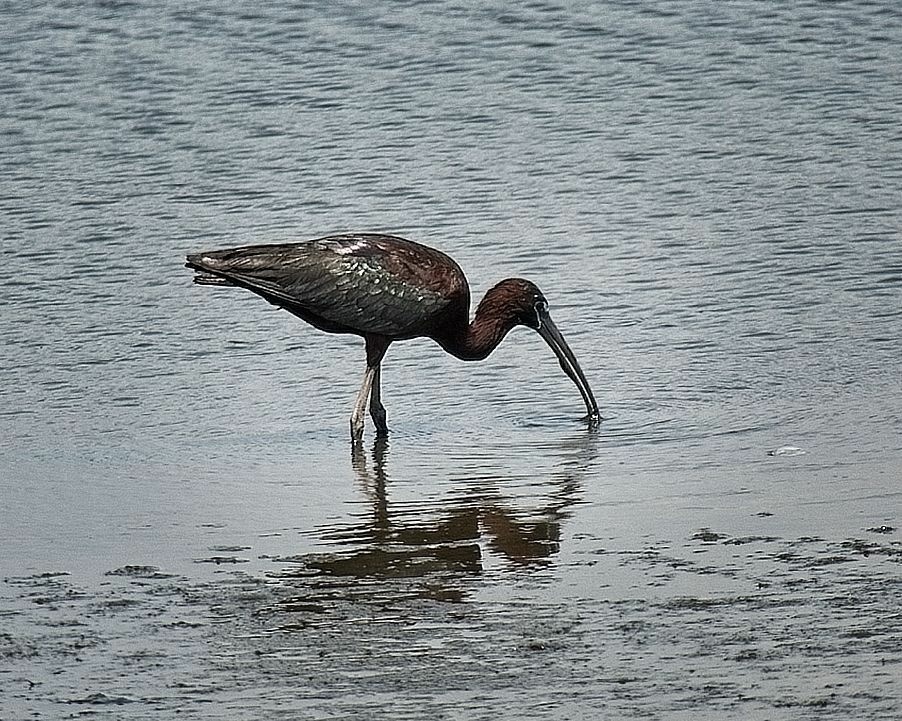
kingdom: Animalia
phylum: Chordata
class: Aves
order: Pelecaniformes
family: Threskiornithidae
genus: Plegadis
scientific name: Plegadis falcinellus
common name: Glossy ibis
